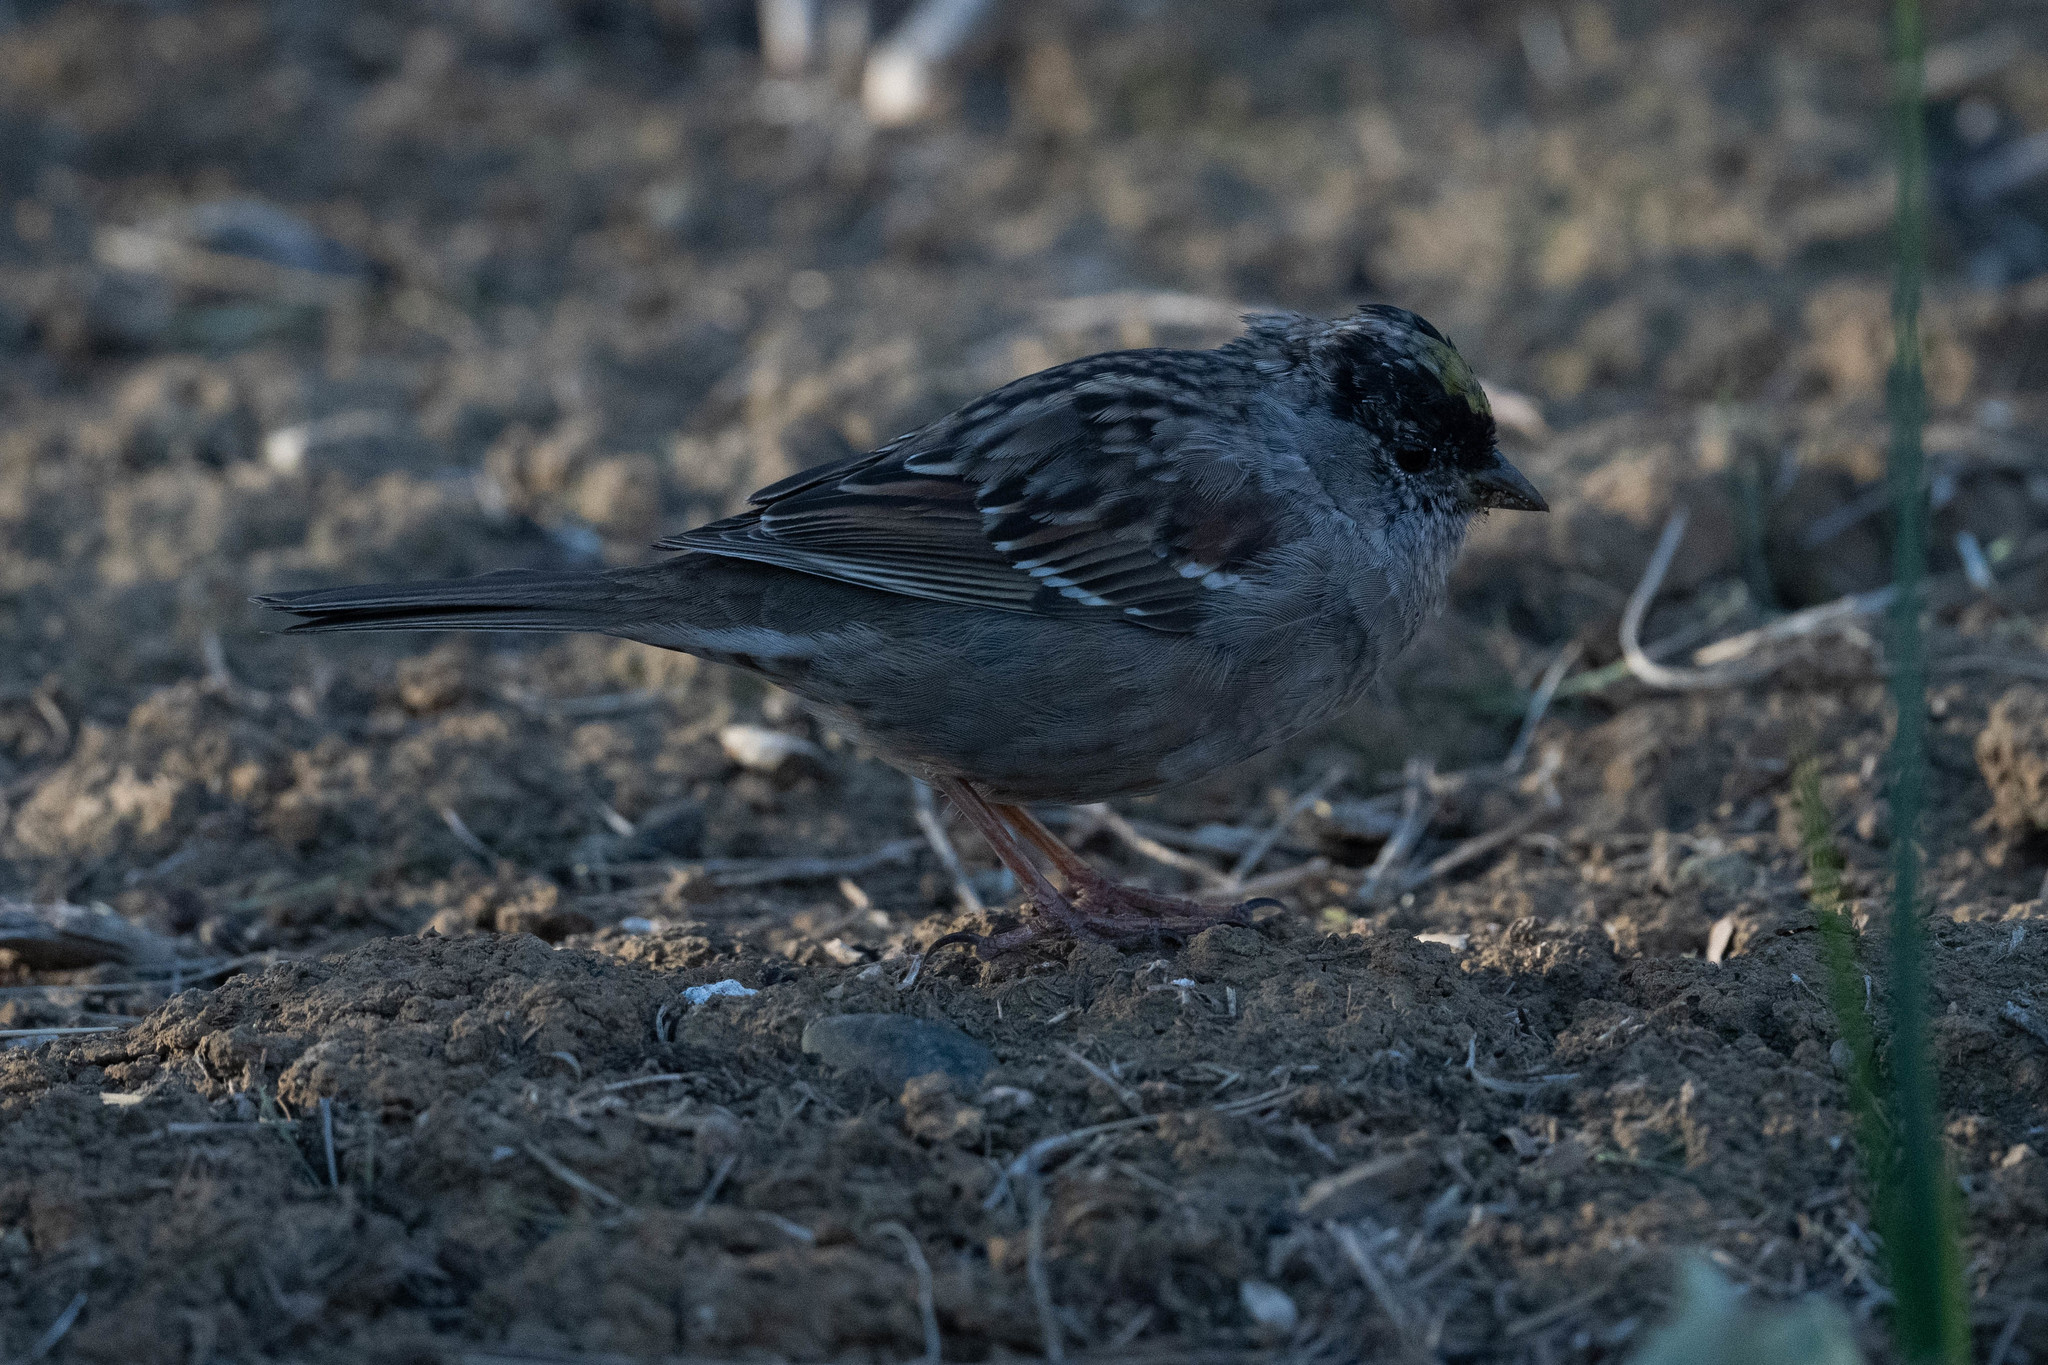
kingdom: Animalia
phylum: Chordata
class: Aves
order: Passeriformes
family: Passerellidae
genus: Zonotrichia
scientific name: Zonotrichia atricapilla
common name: Golden-crowned sparrow
